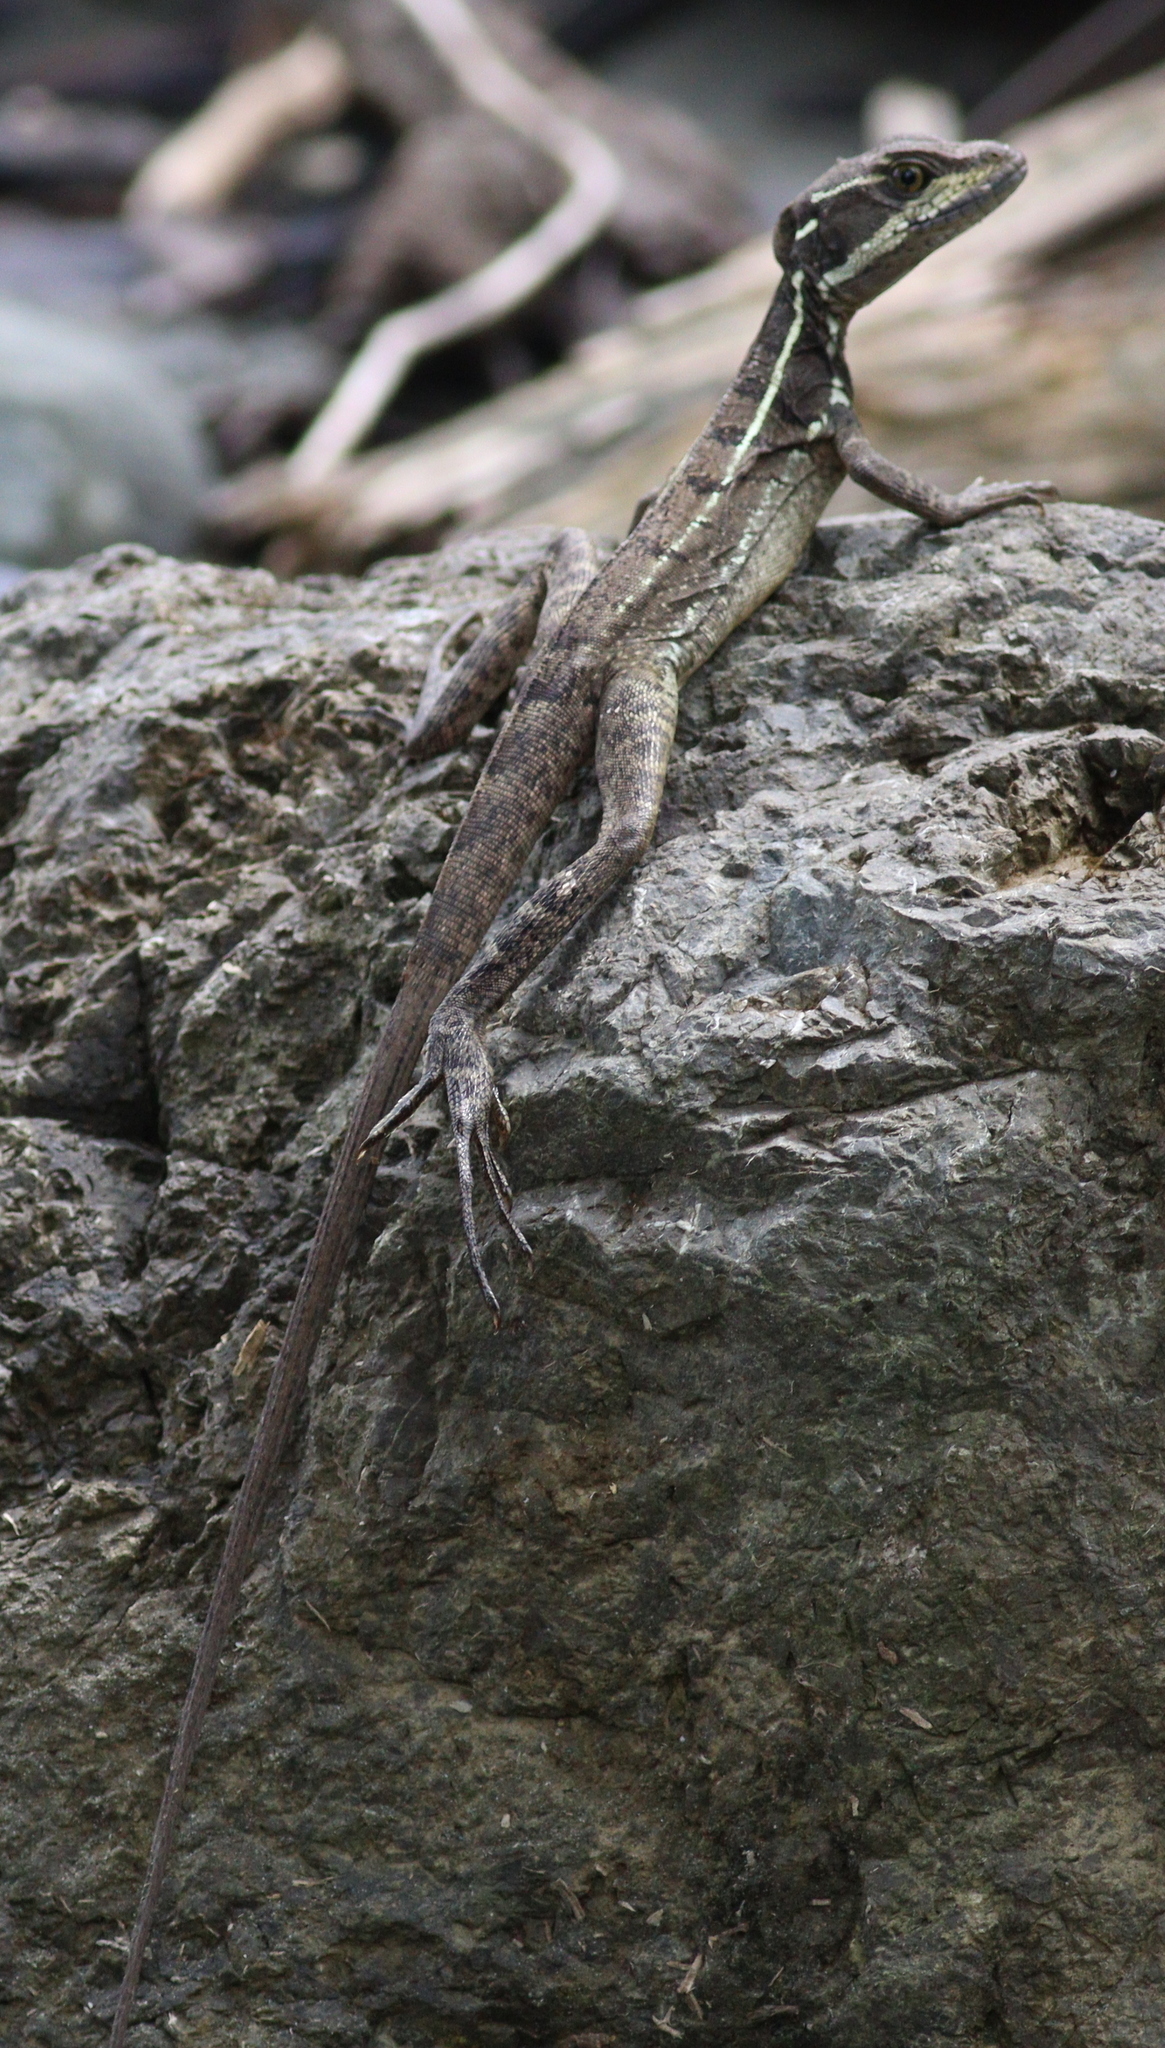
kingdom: Animalia
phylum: Chordata
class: Squamata
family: Corytophanidae
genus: Basiliscus
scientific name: Basiliscus basiliscus
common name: Common basilisk
